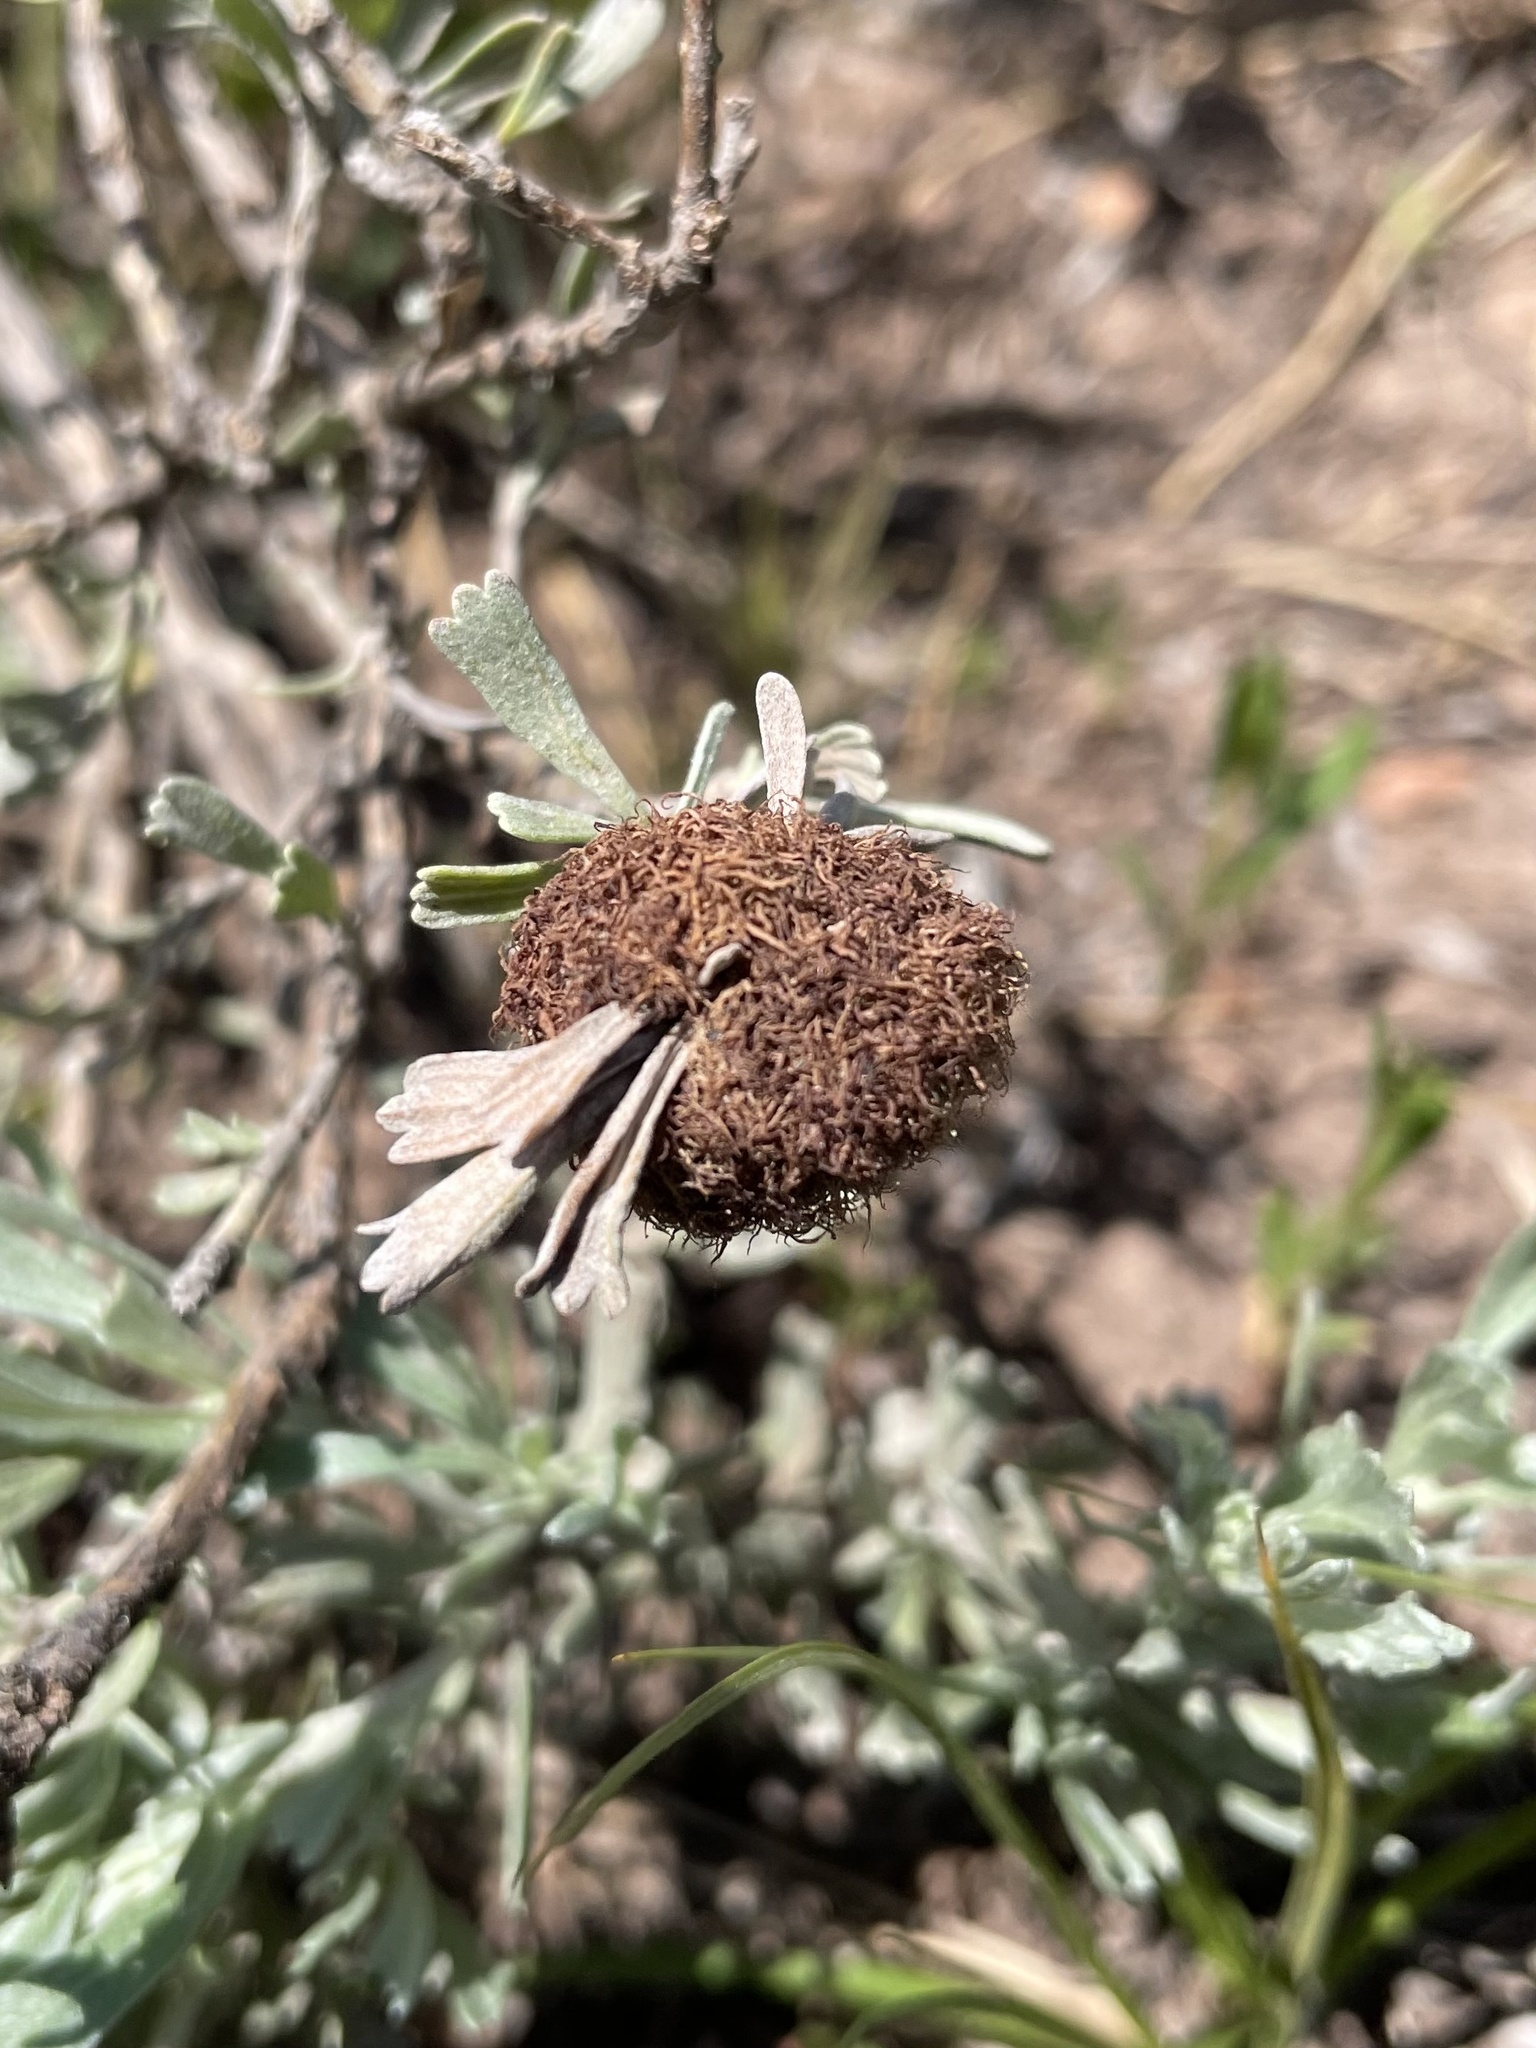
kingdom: Animalia
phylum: Arthropoda
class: Insecta
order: Diptera
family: Cecidomyiidae
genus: Rhopalomyia
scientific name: Rhopalomyia medusa
